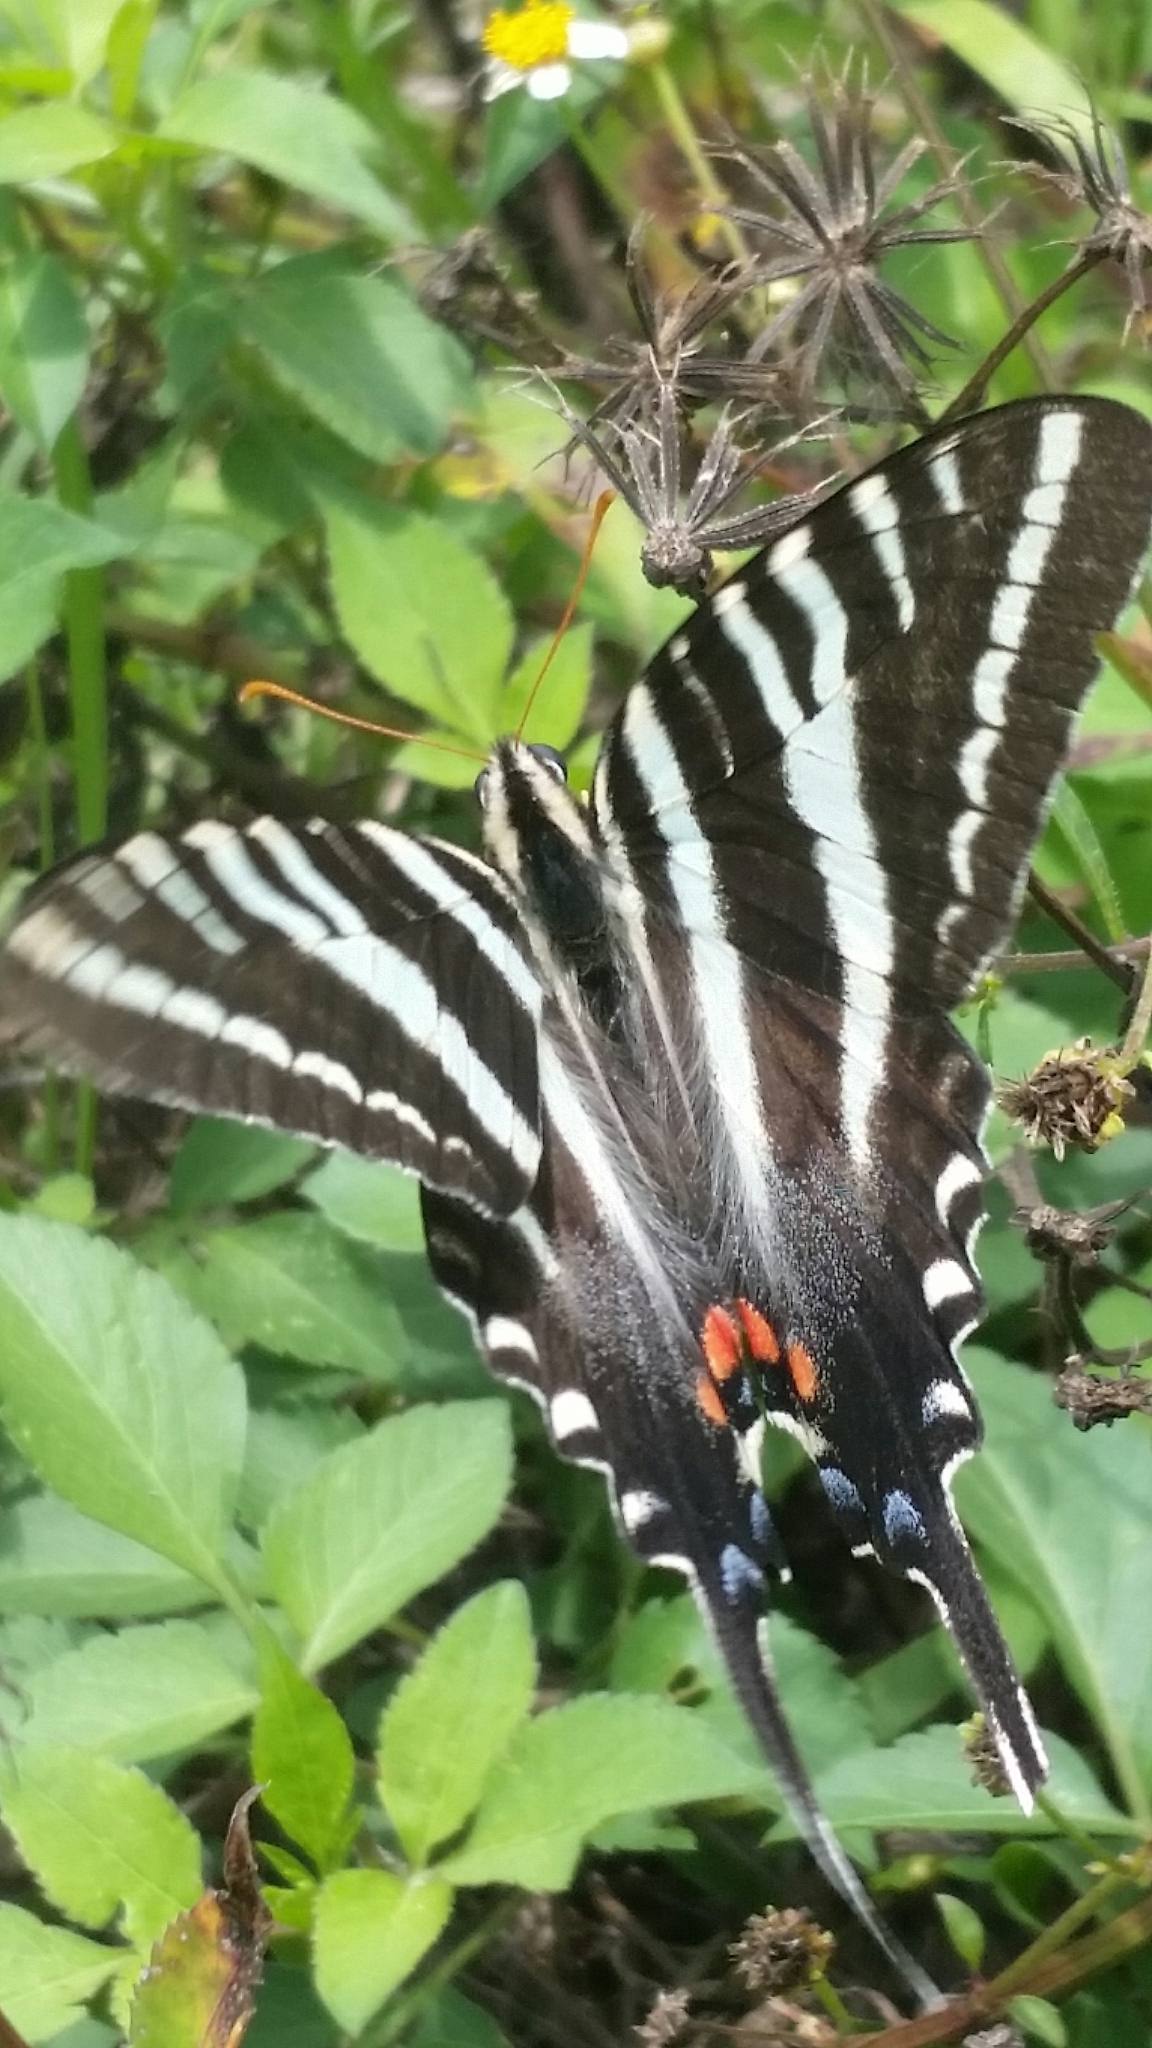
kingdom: Animalia
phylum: Arthropoda
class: Insecta
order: Lepidoptera
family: Papilionidae
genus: Protographium
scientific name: Protographium marcellus
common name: Zebra swallowtail
